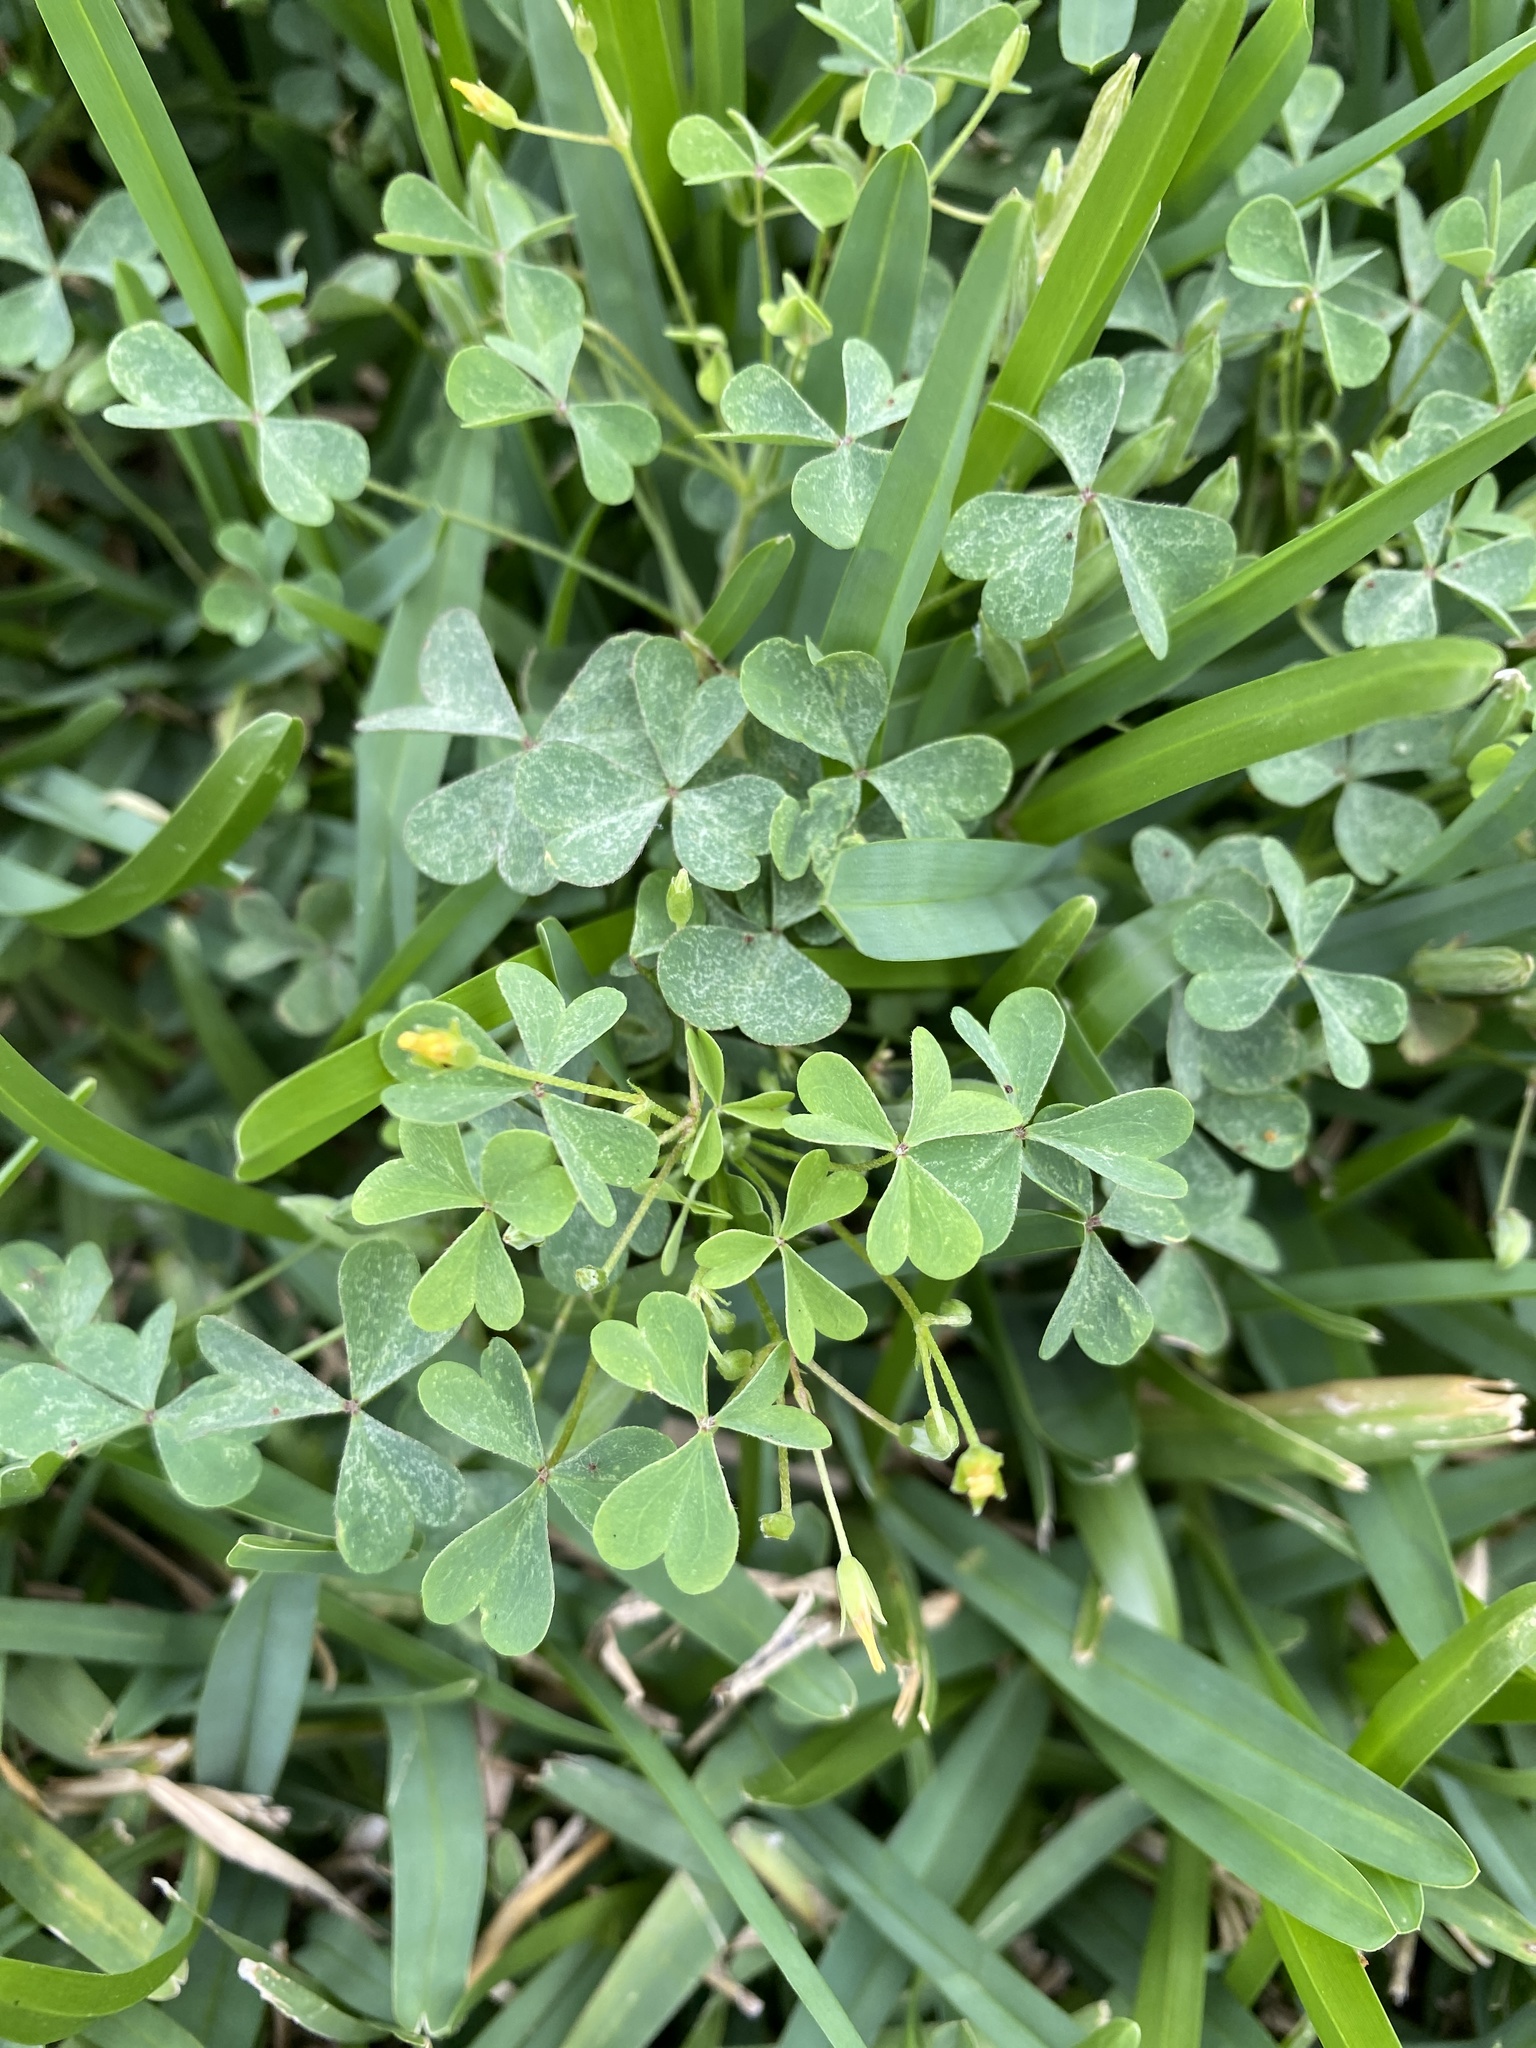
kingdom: Plantae
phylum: Tracheophyta
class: Magnoliopsida
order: Oxalidales
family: Oxalidaceae
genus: Oxalis
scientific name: Oxalis dillenii
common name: Sussex yellow-sorrel
